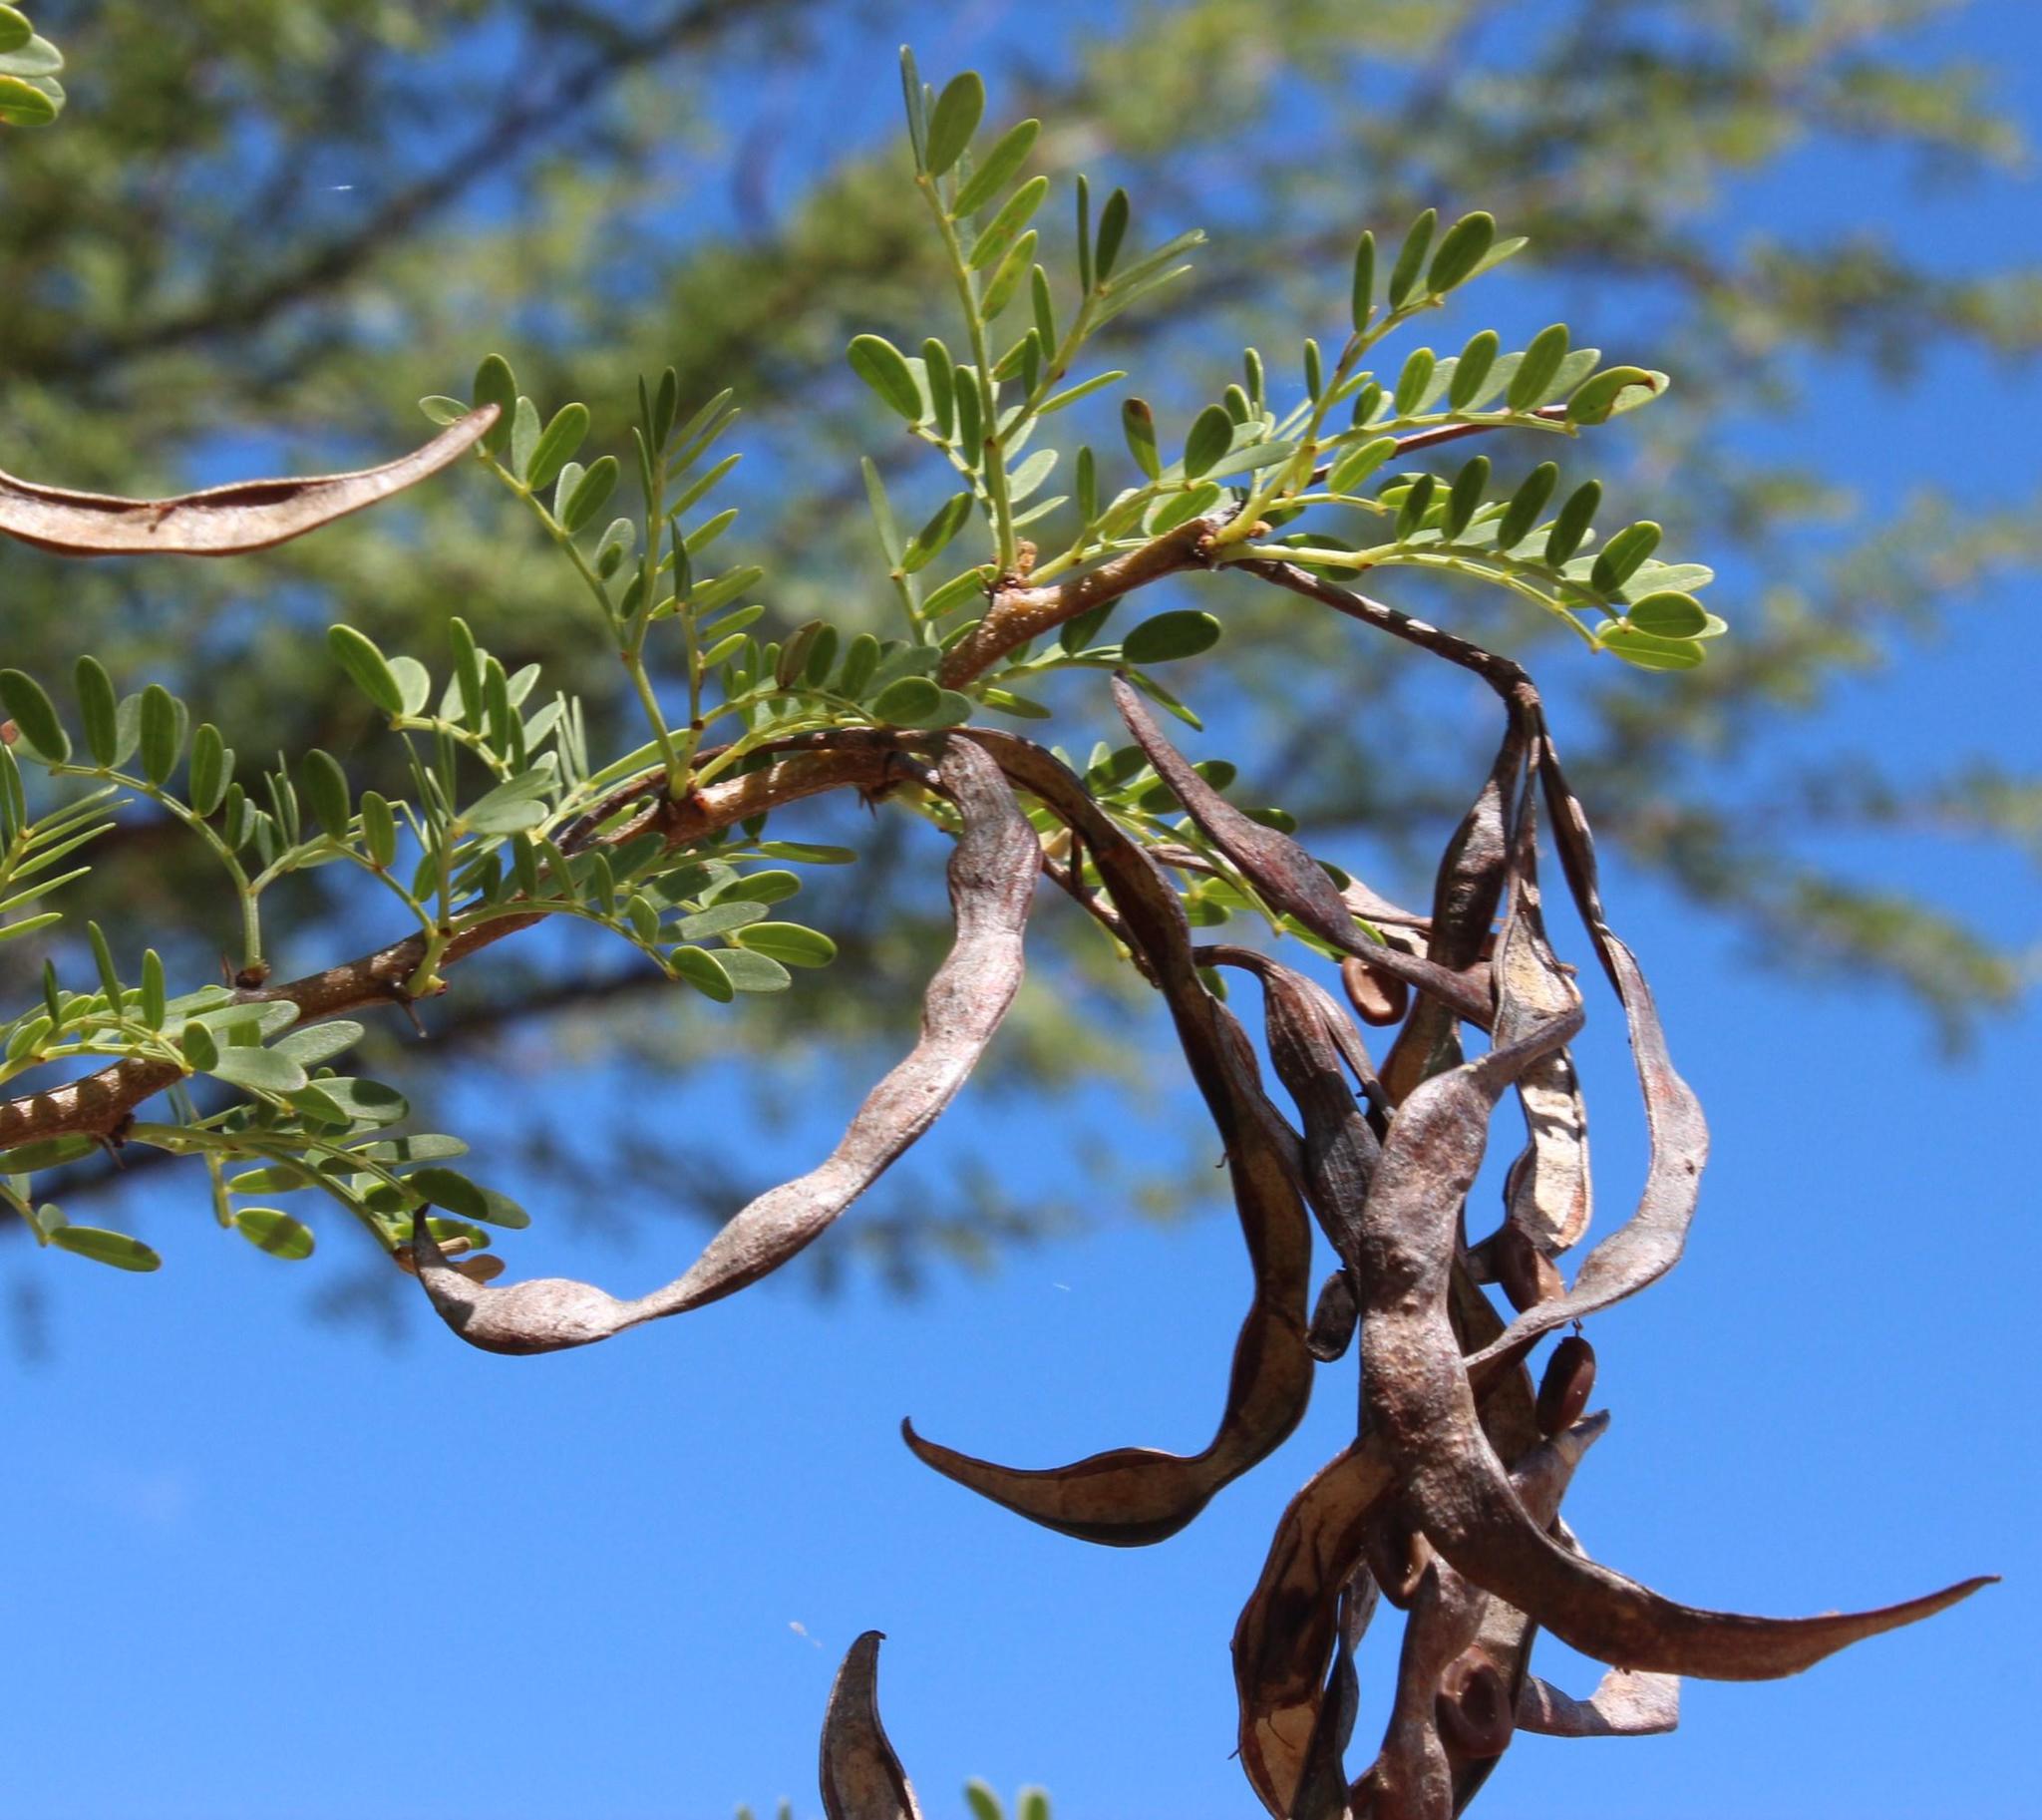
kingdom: Plantae
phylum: Tracheophyta
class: Magnoliopsida
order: Fabales
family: Fabaceae
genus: Vachellia
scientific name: Vachellia karroo
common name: Sweet thorn
